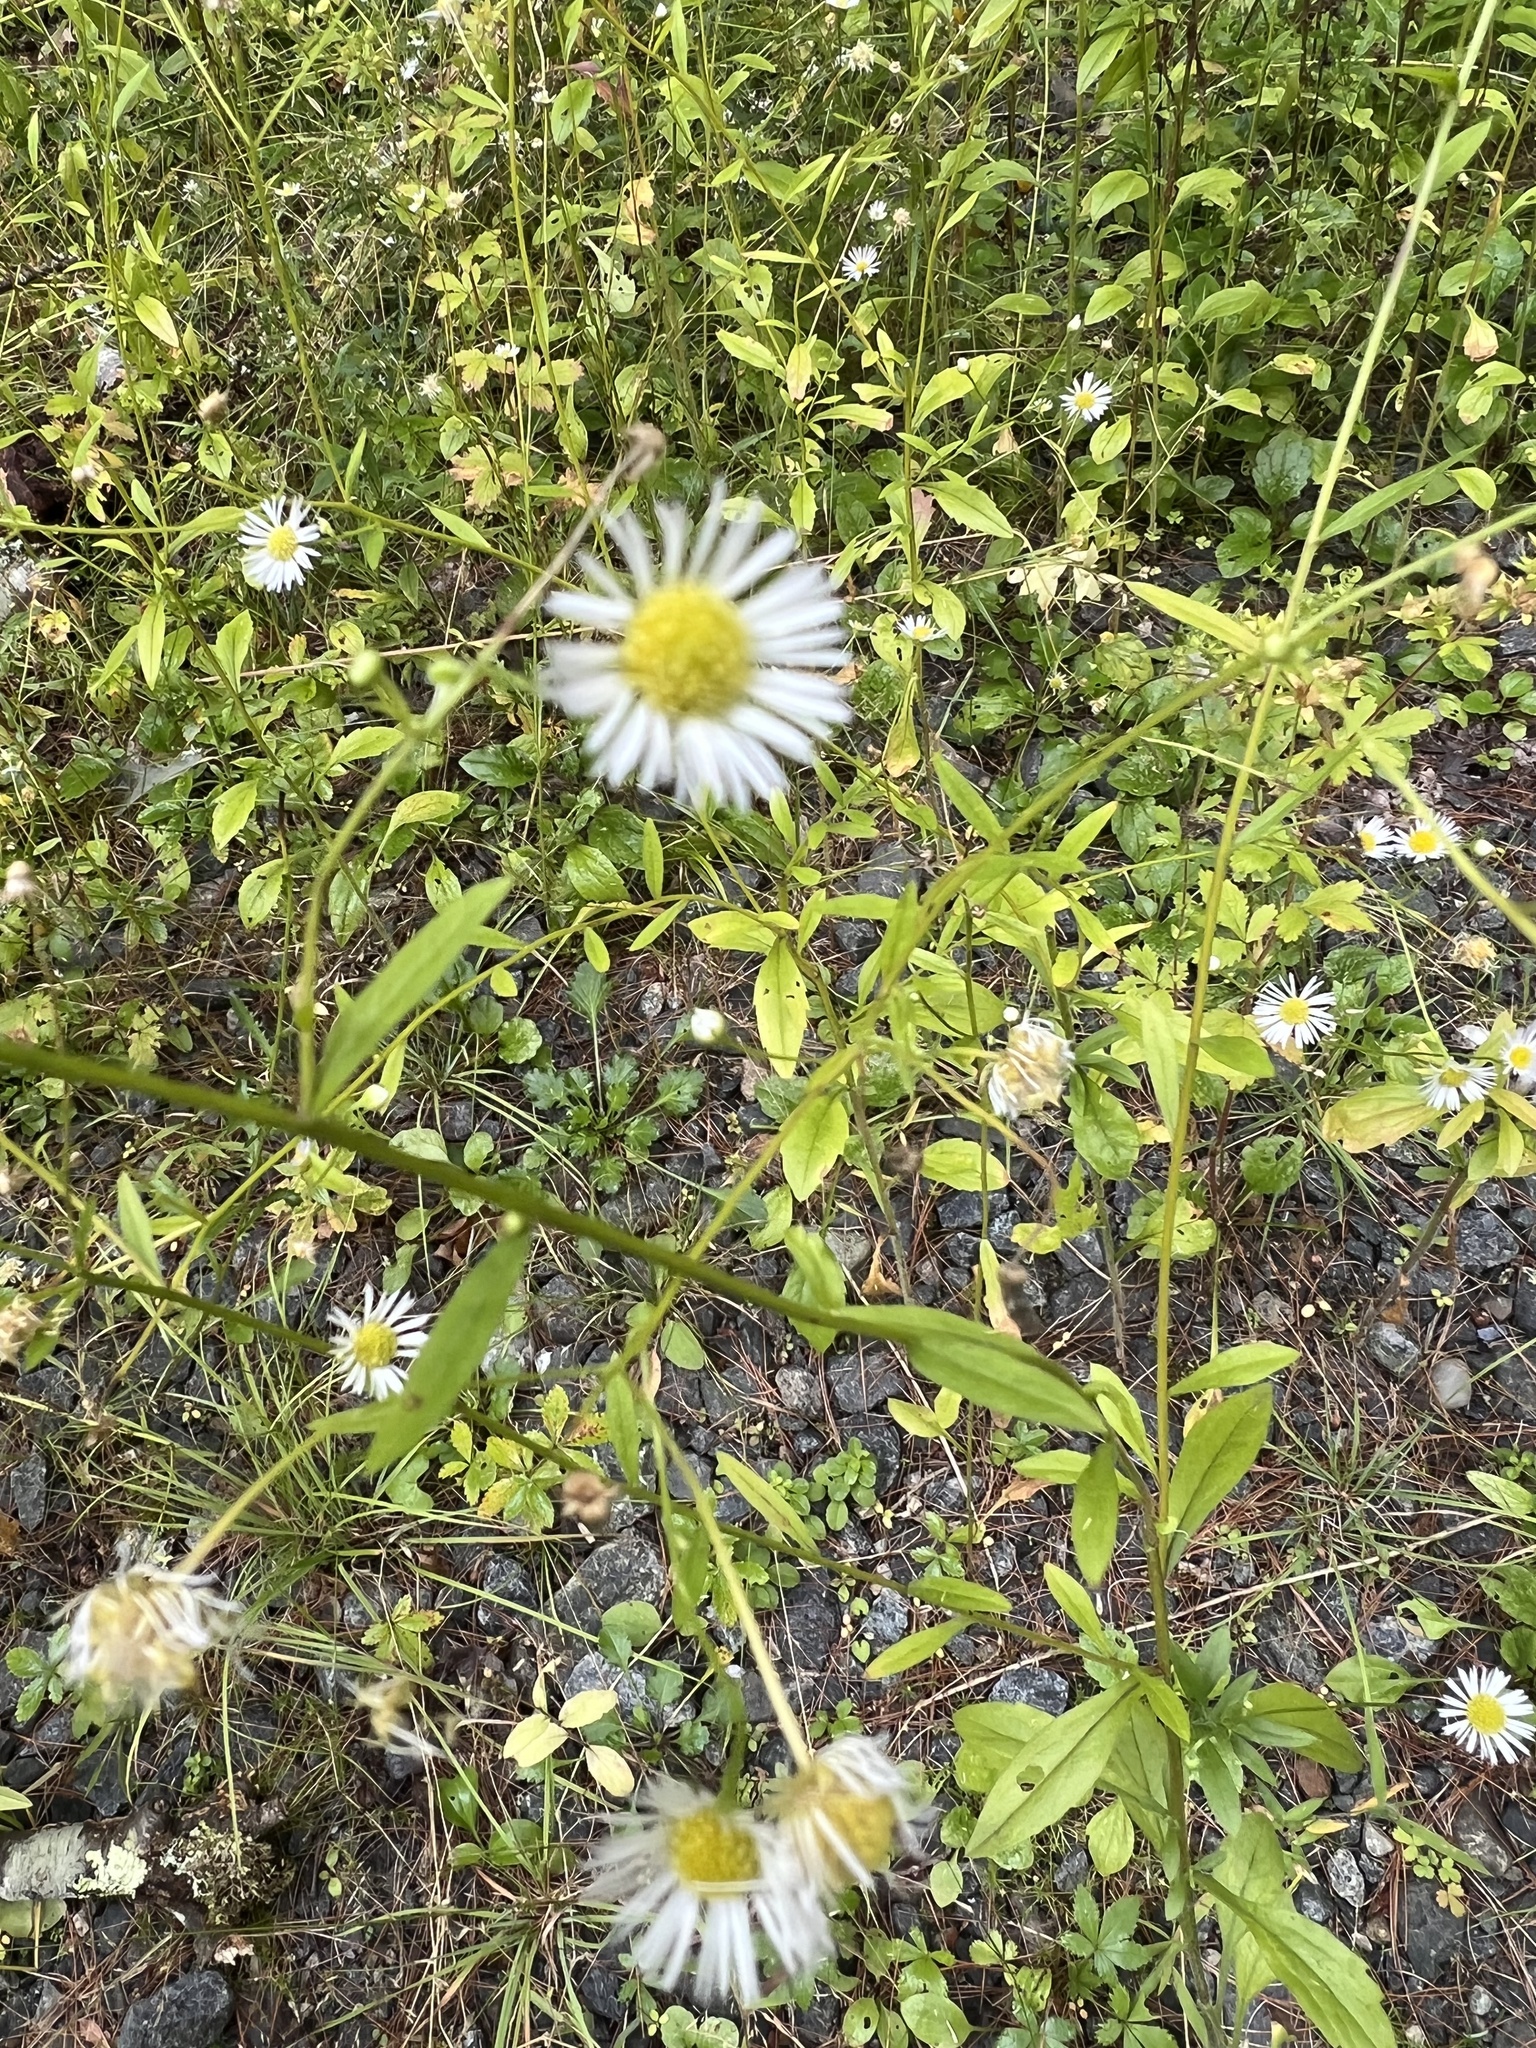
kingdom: Plantae
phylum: Tracheophyta
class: Magnoliopsida
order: Asterales
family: Asteraceae
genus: Erigeron
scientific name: Erigeron annuus
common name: Tall fleabane
